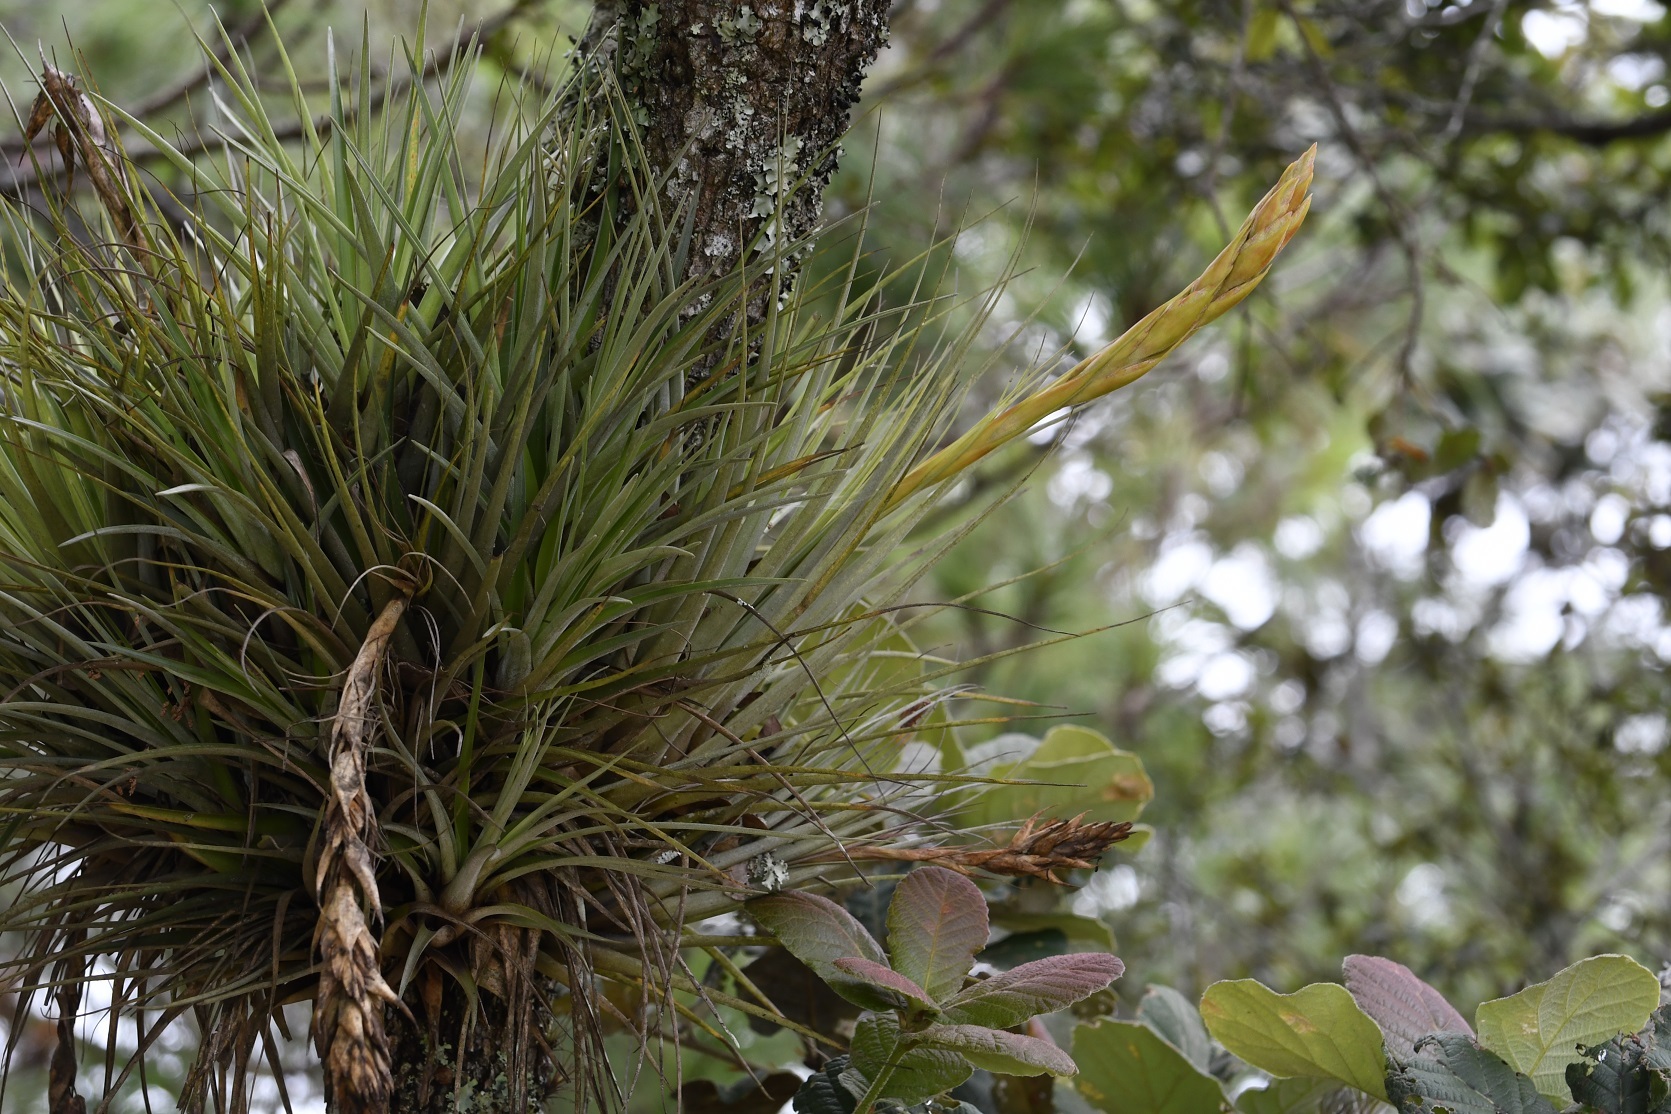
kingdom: Plantae
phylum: Tracheophyta
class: Liliopsida
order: Poales
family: Bromeliaceae
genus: Tillandsia
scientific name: Tillandsia polita
